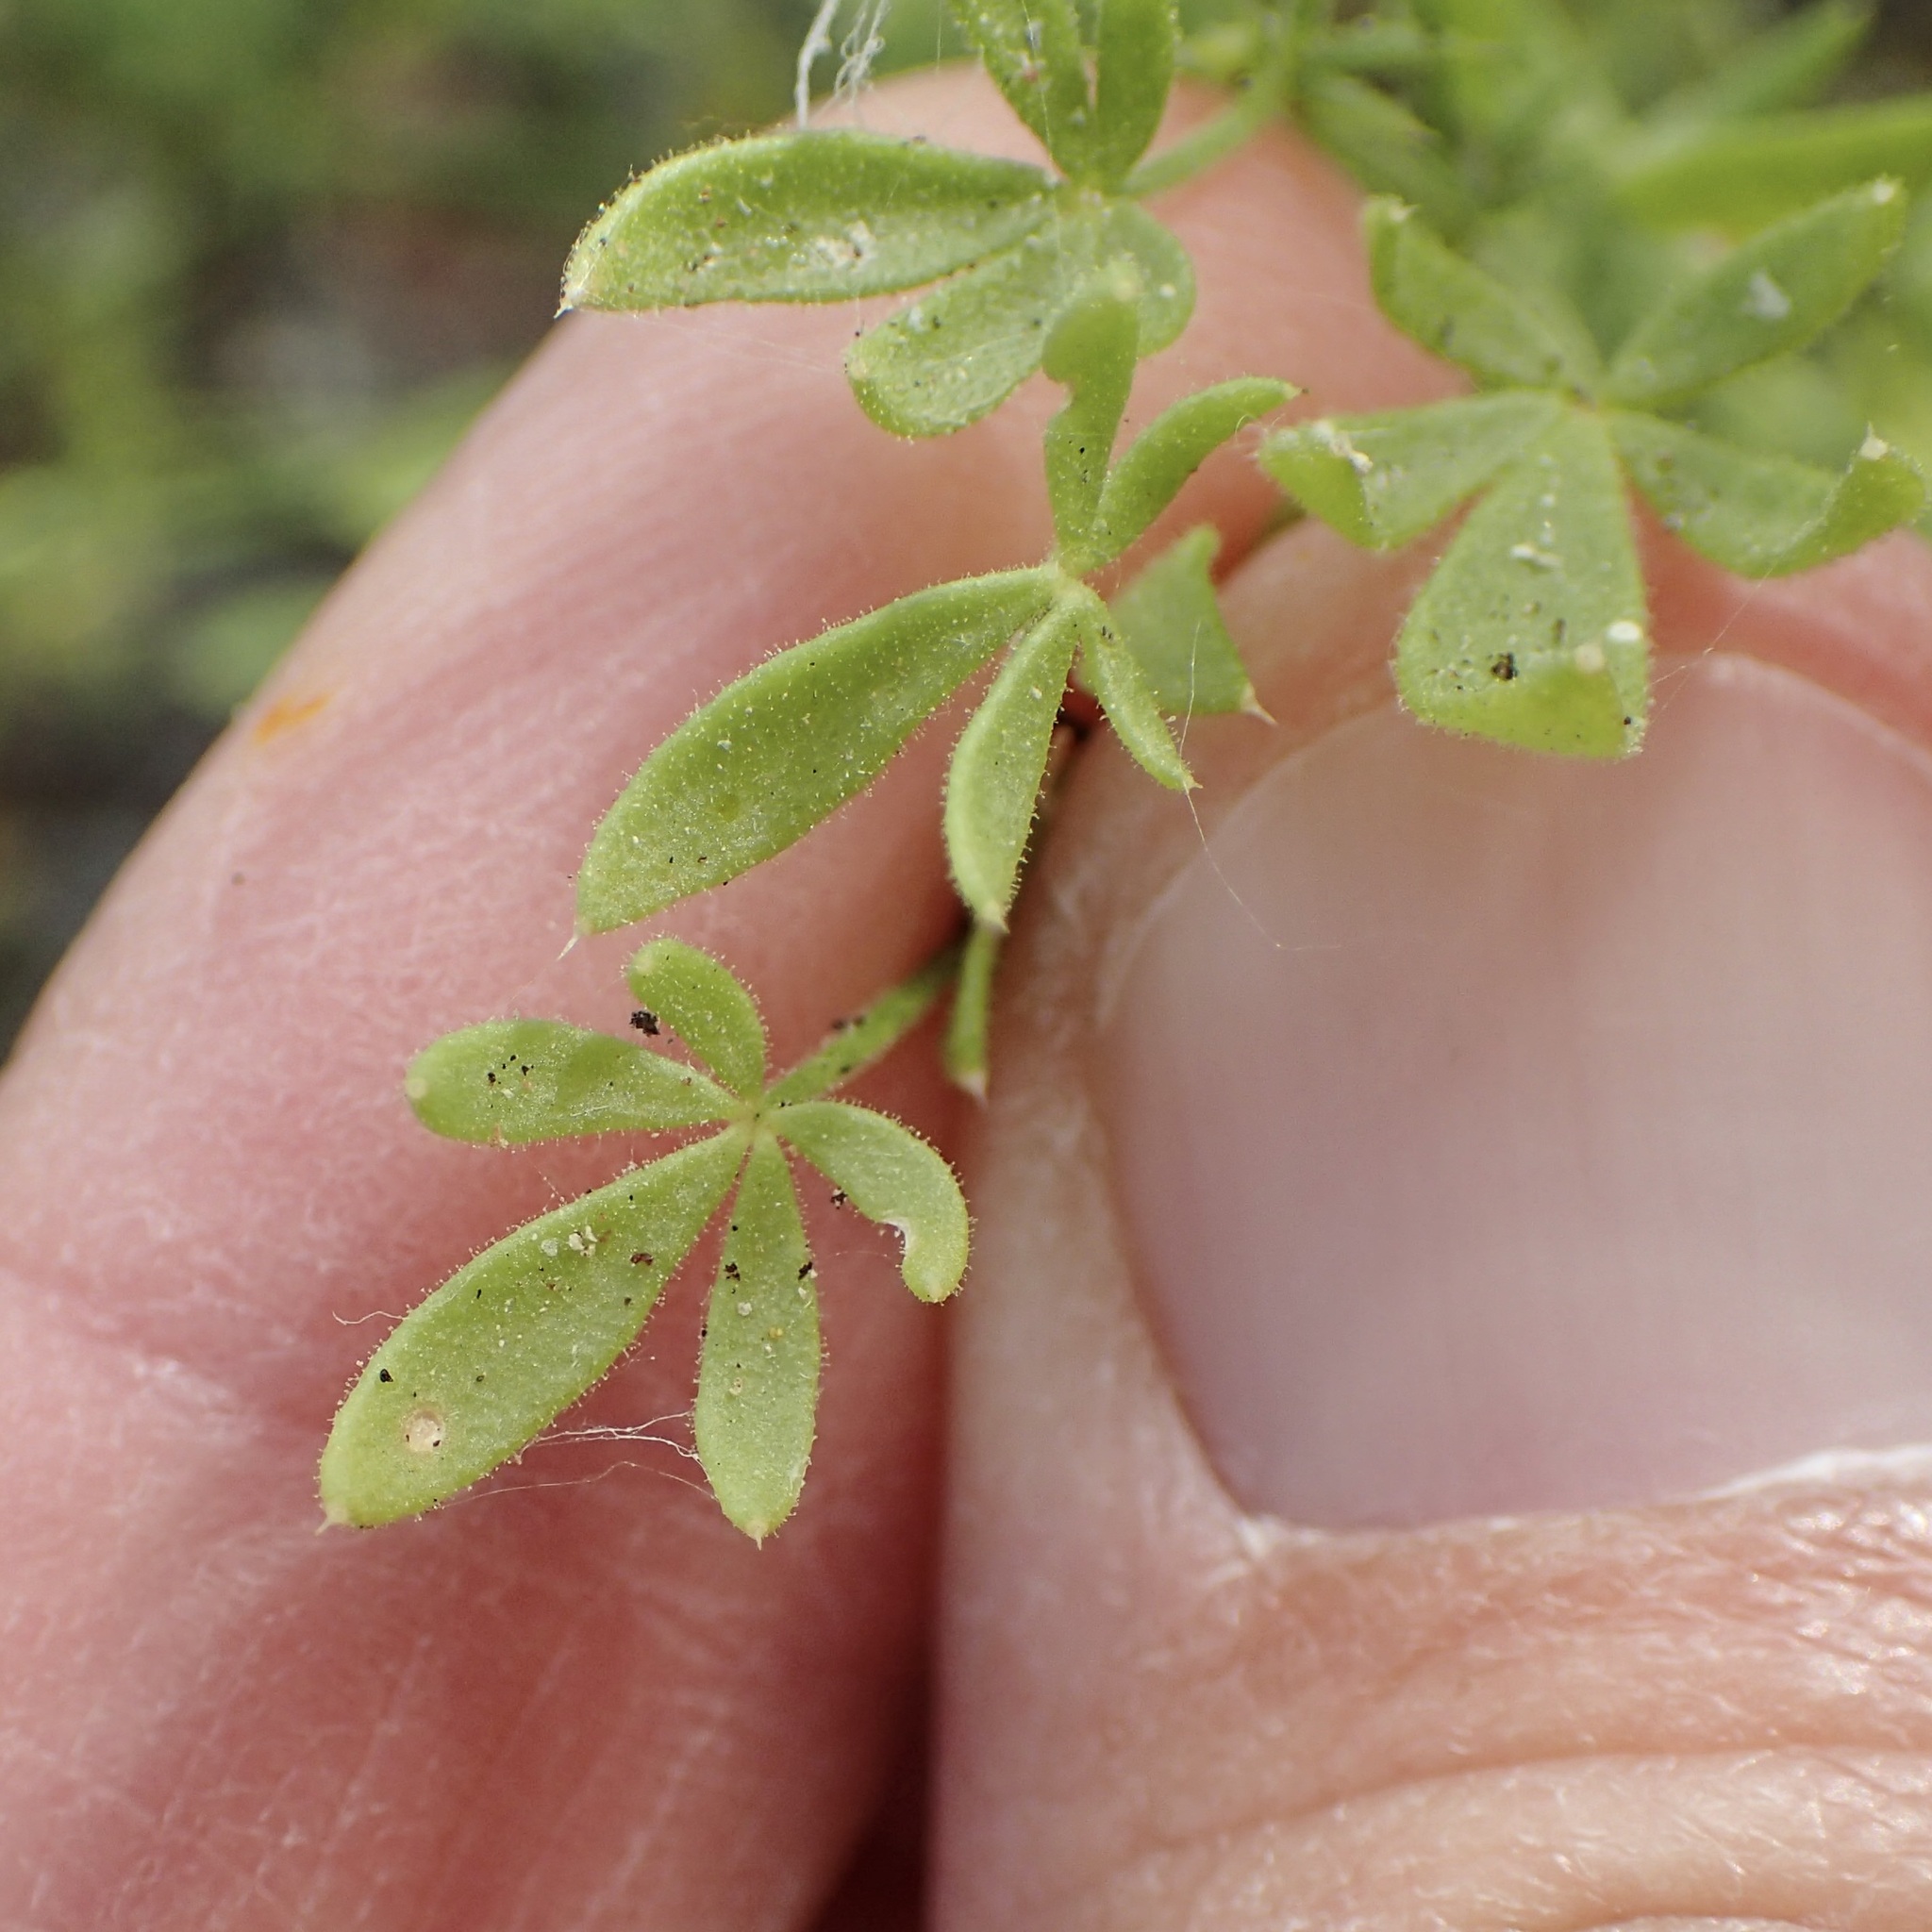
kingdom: Plantae
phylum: Tracheophyta
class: Magnoliopsida
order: Zygophyllales
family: Zygophyllaceae
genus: Fagonia
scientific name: Fagonia palmeri
